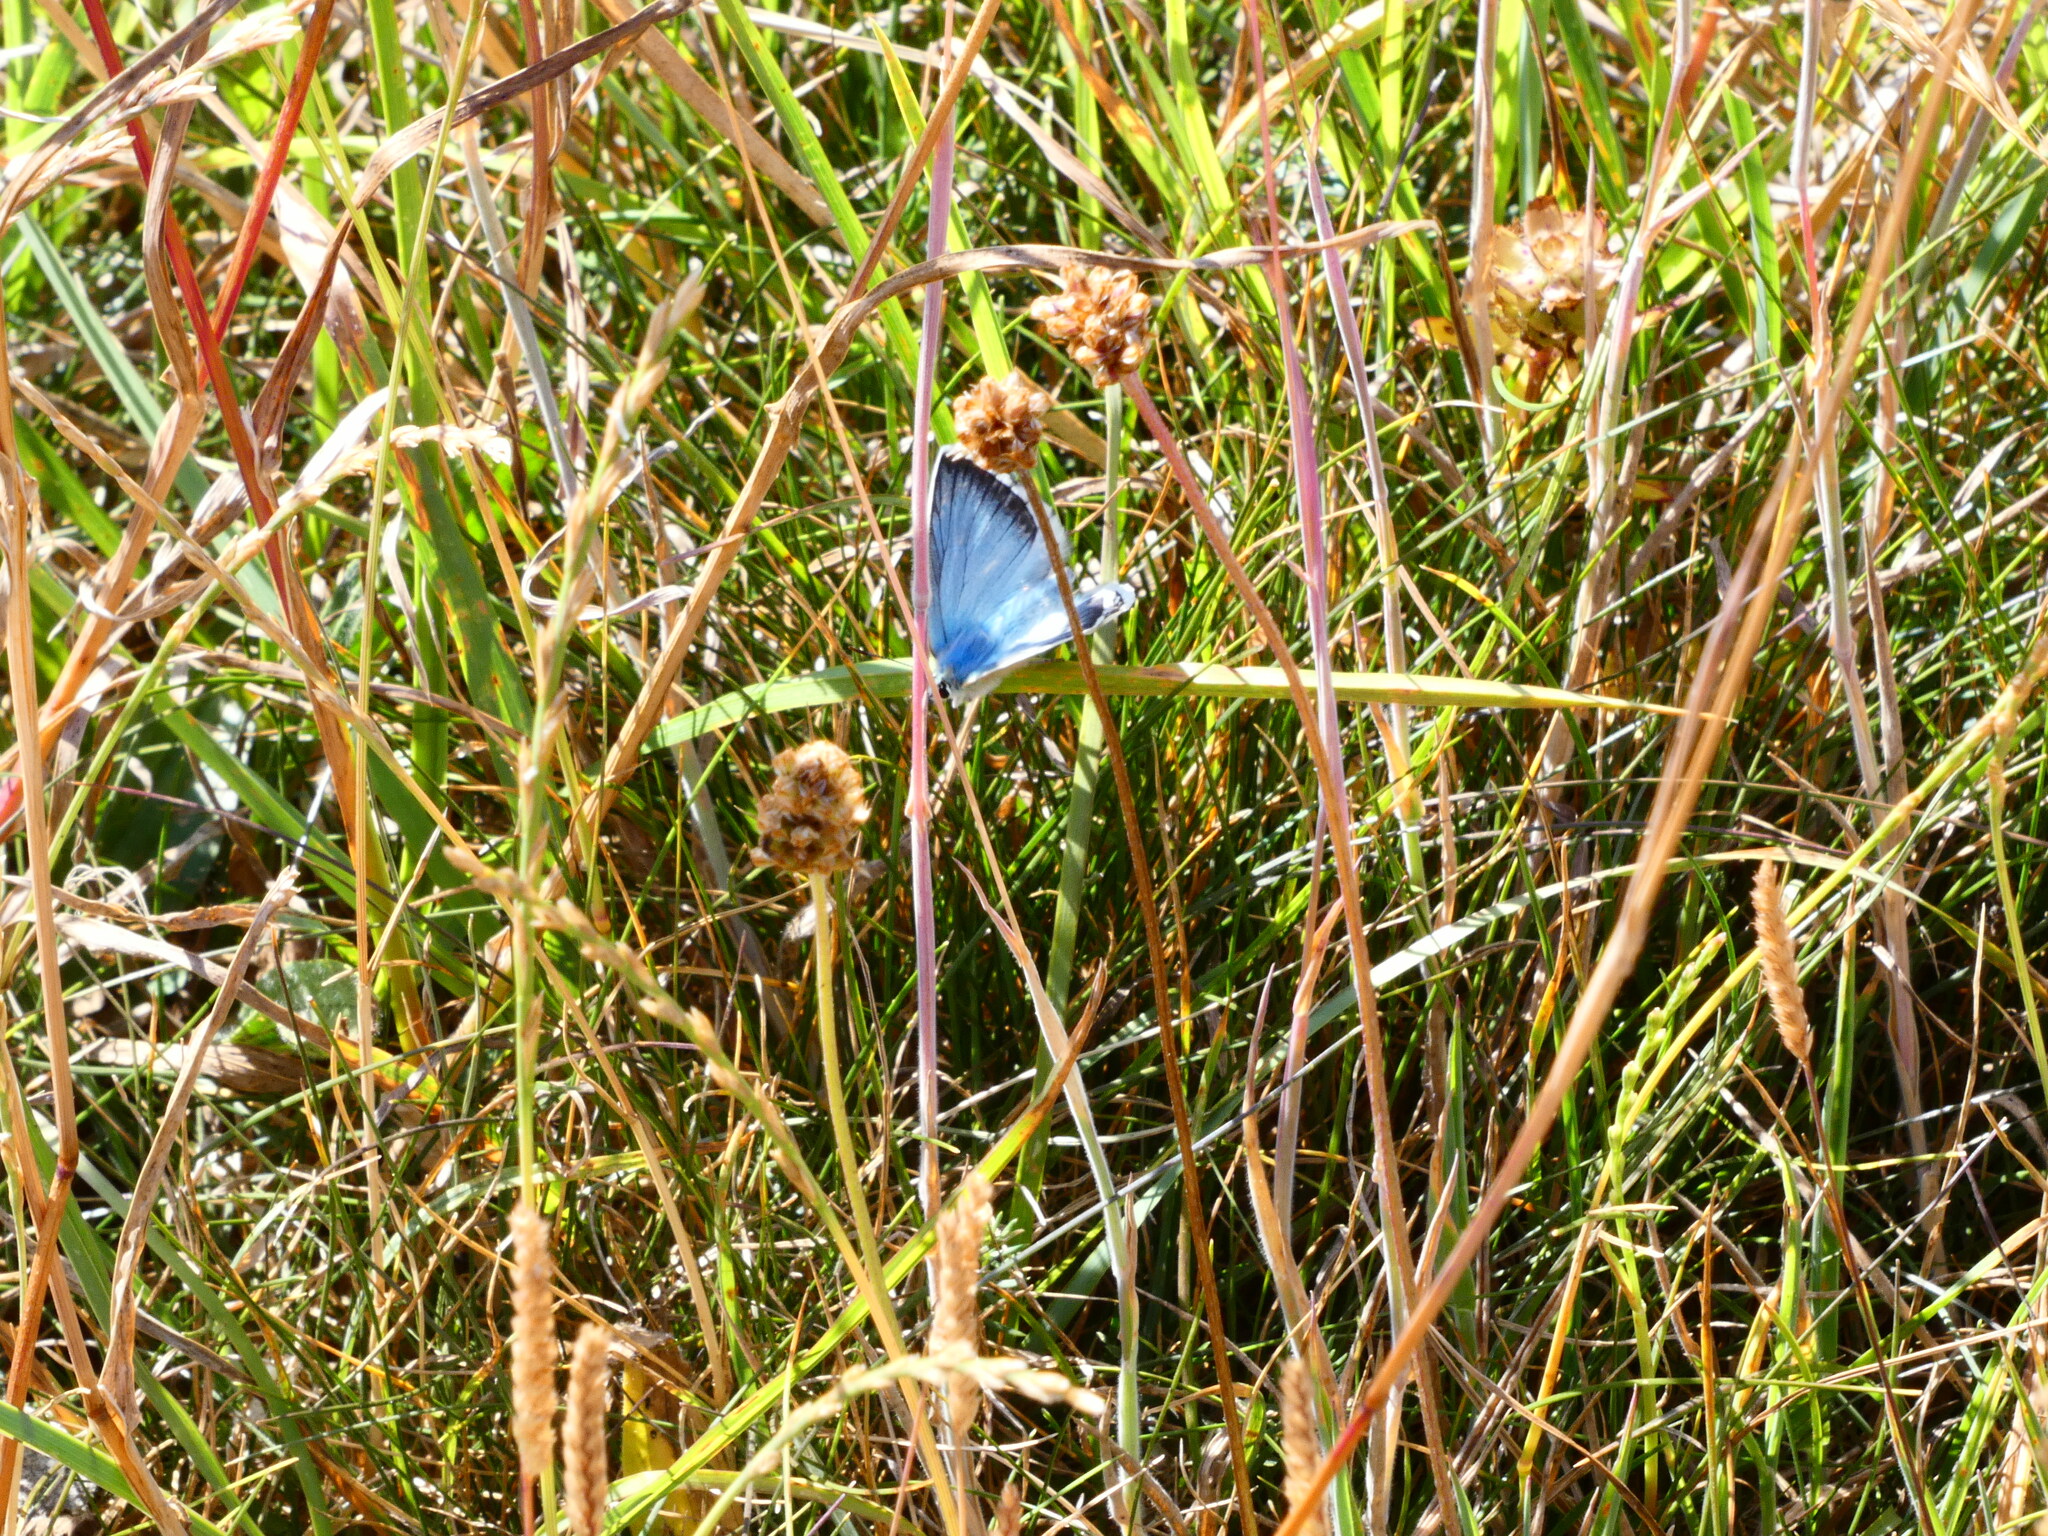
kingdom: Animalia
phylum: Arthropoda
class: Insecta
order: Lepidoptera
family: Lycaenidae
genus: Lysandra
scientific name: Lysandra coridon
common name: Chalkhill blue
